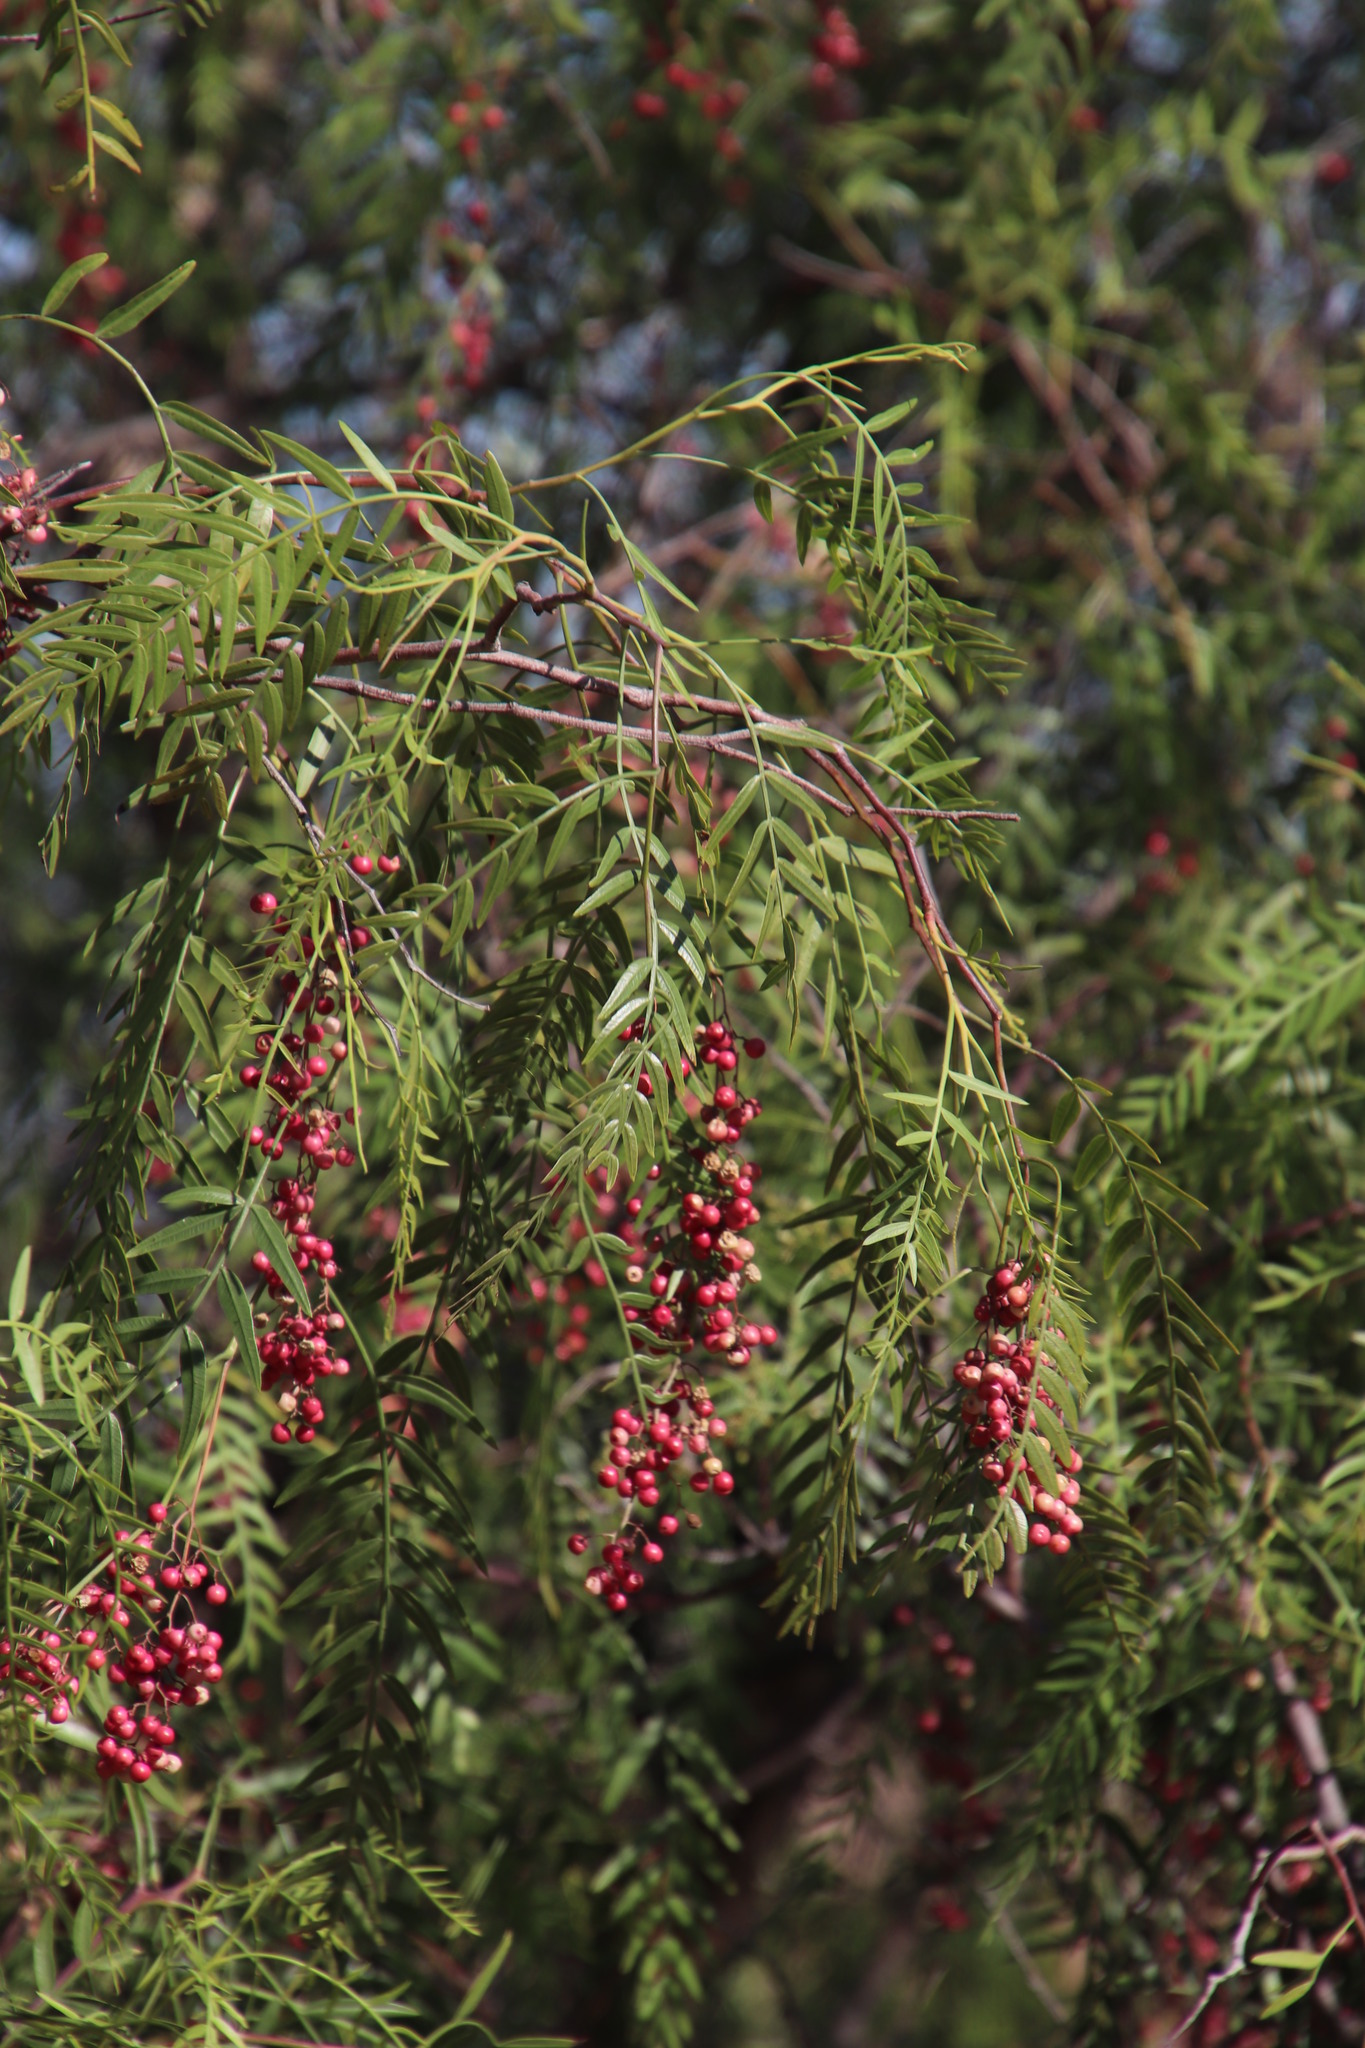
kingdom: Plantae
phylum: Tracheophyta
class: Magnoliopsida
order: Sapindales
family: Anacardiaceae
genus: Schinus
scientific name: Schinus molle
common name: Peruvian peppertree
